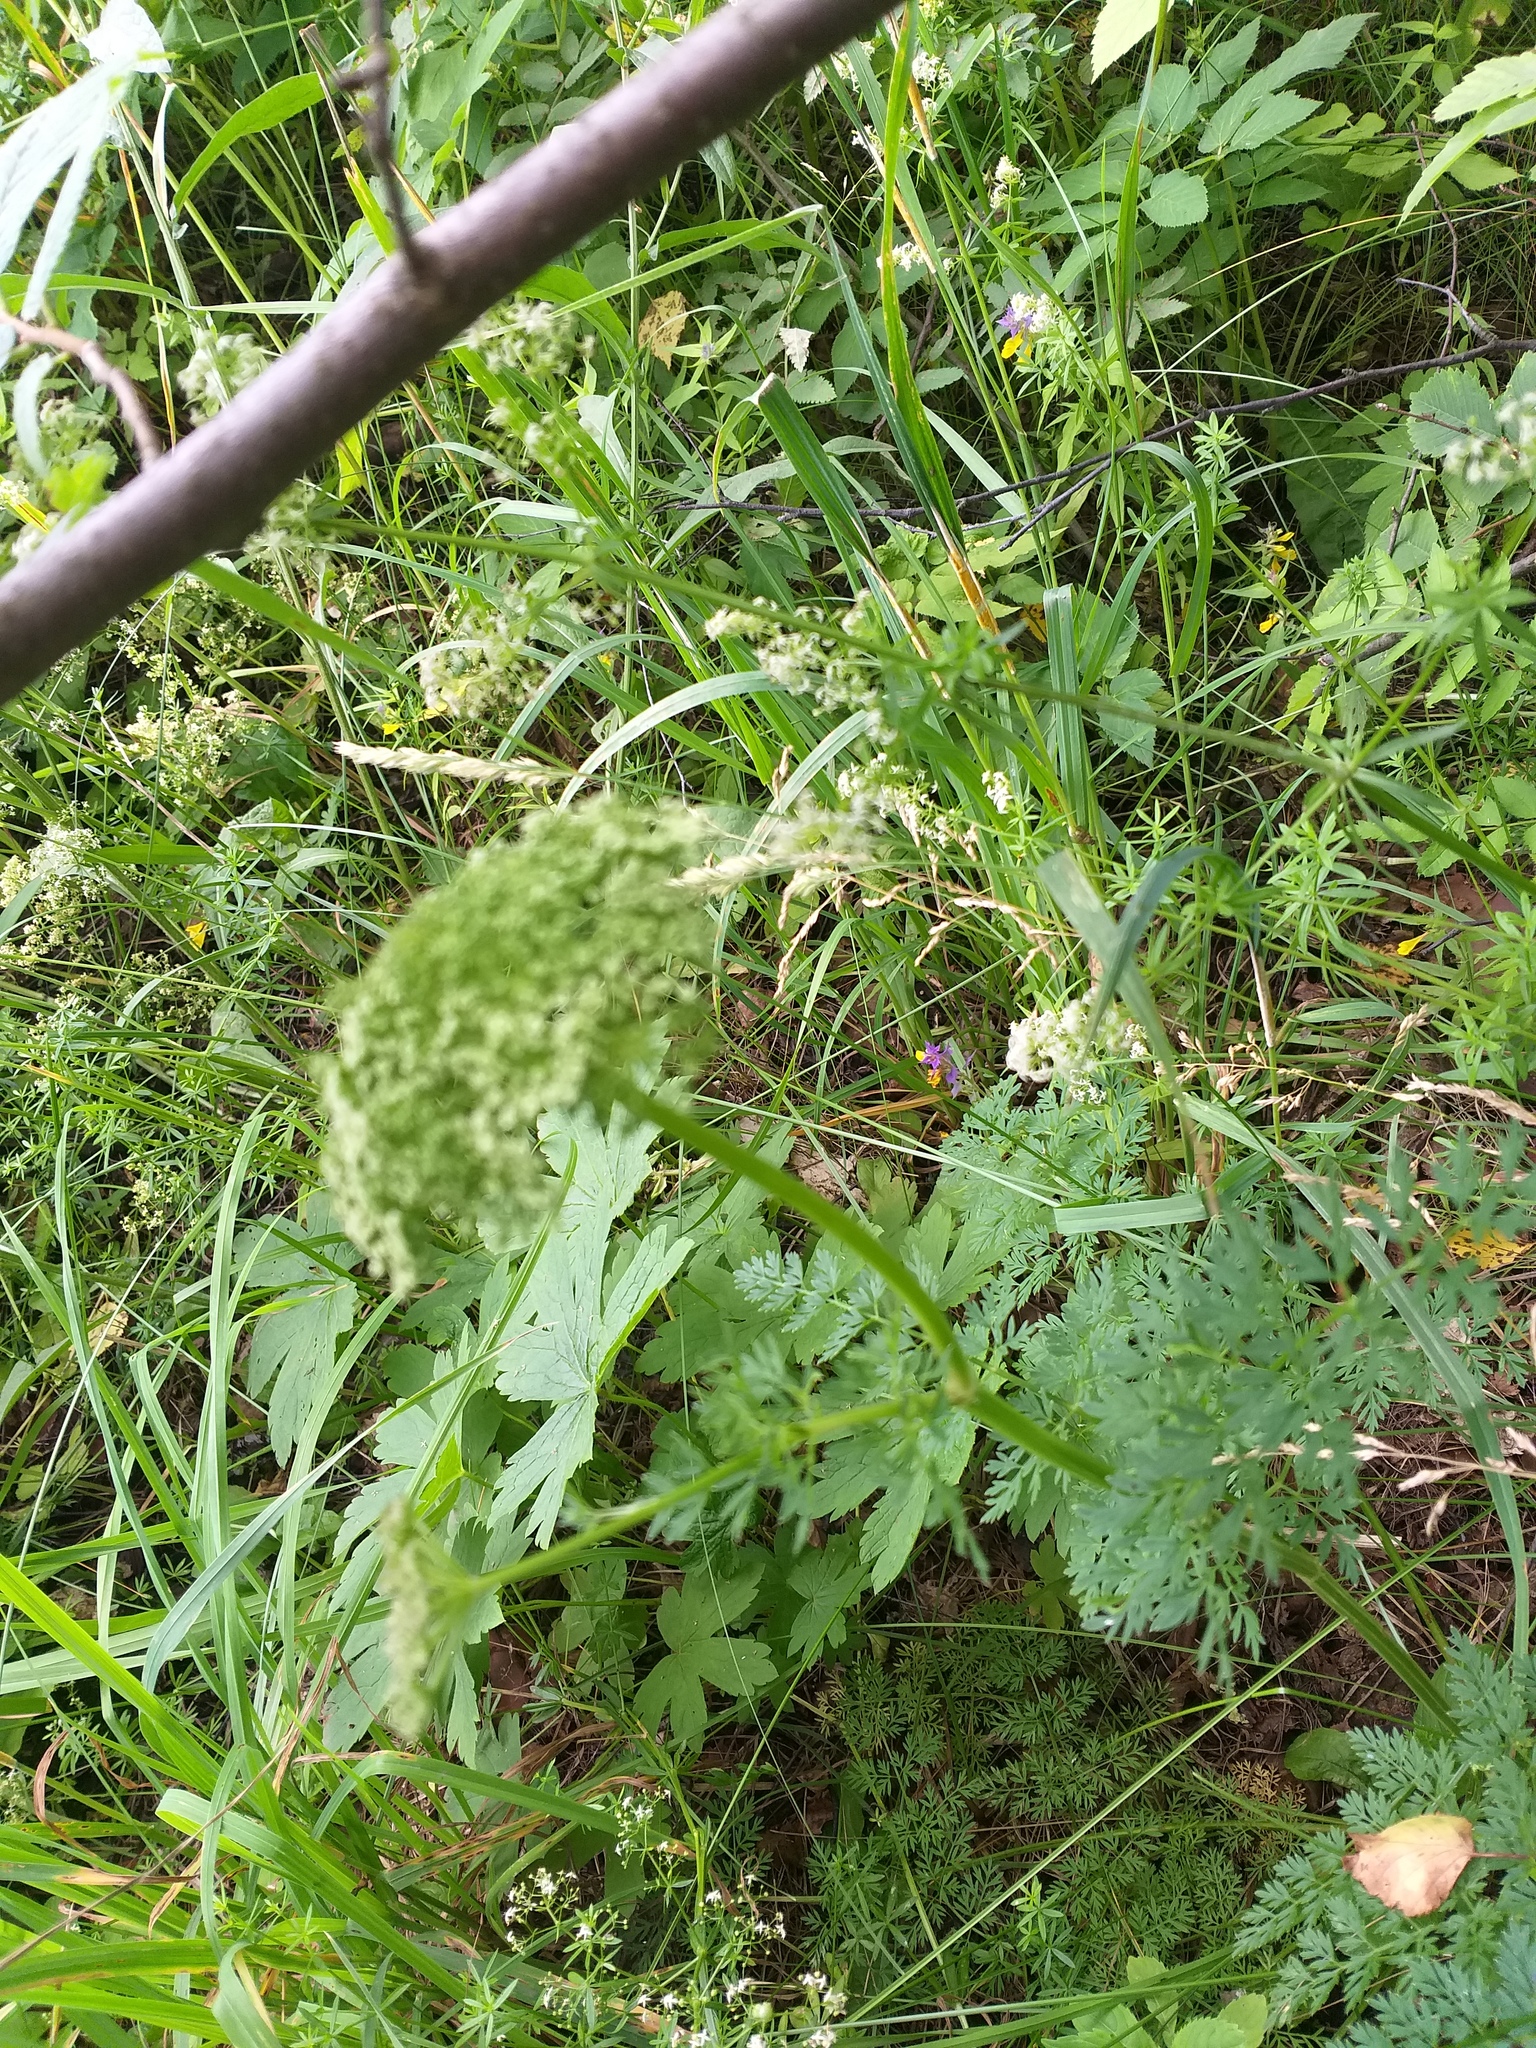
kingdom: Plantae
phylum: Tracheophyta
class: Magnoliopsida
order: Apiales
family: Apiaceae
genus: Selinum
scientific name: Selinum carvifolia
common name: Cambridge milk-parsley
